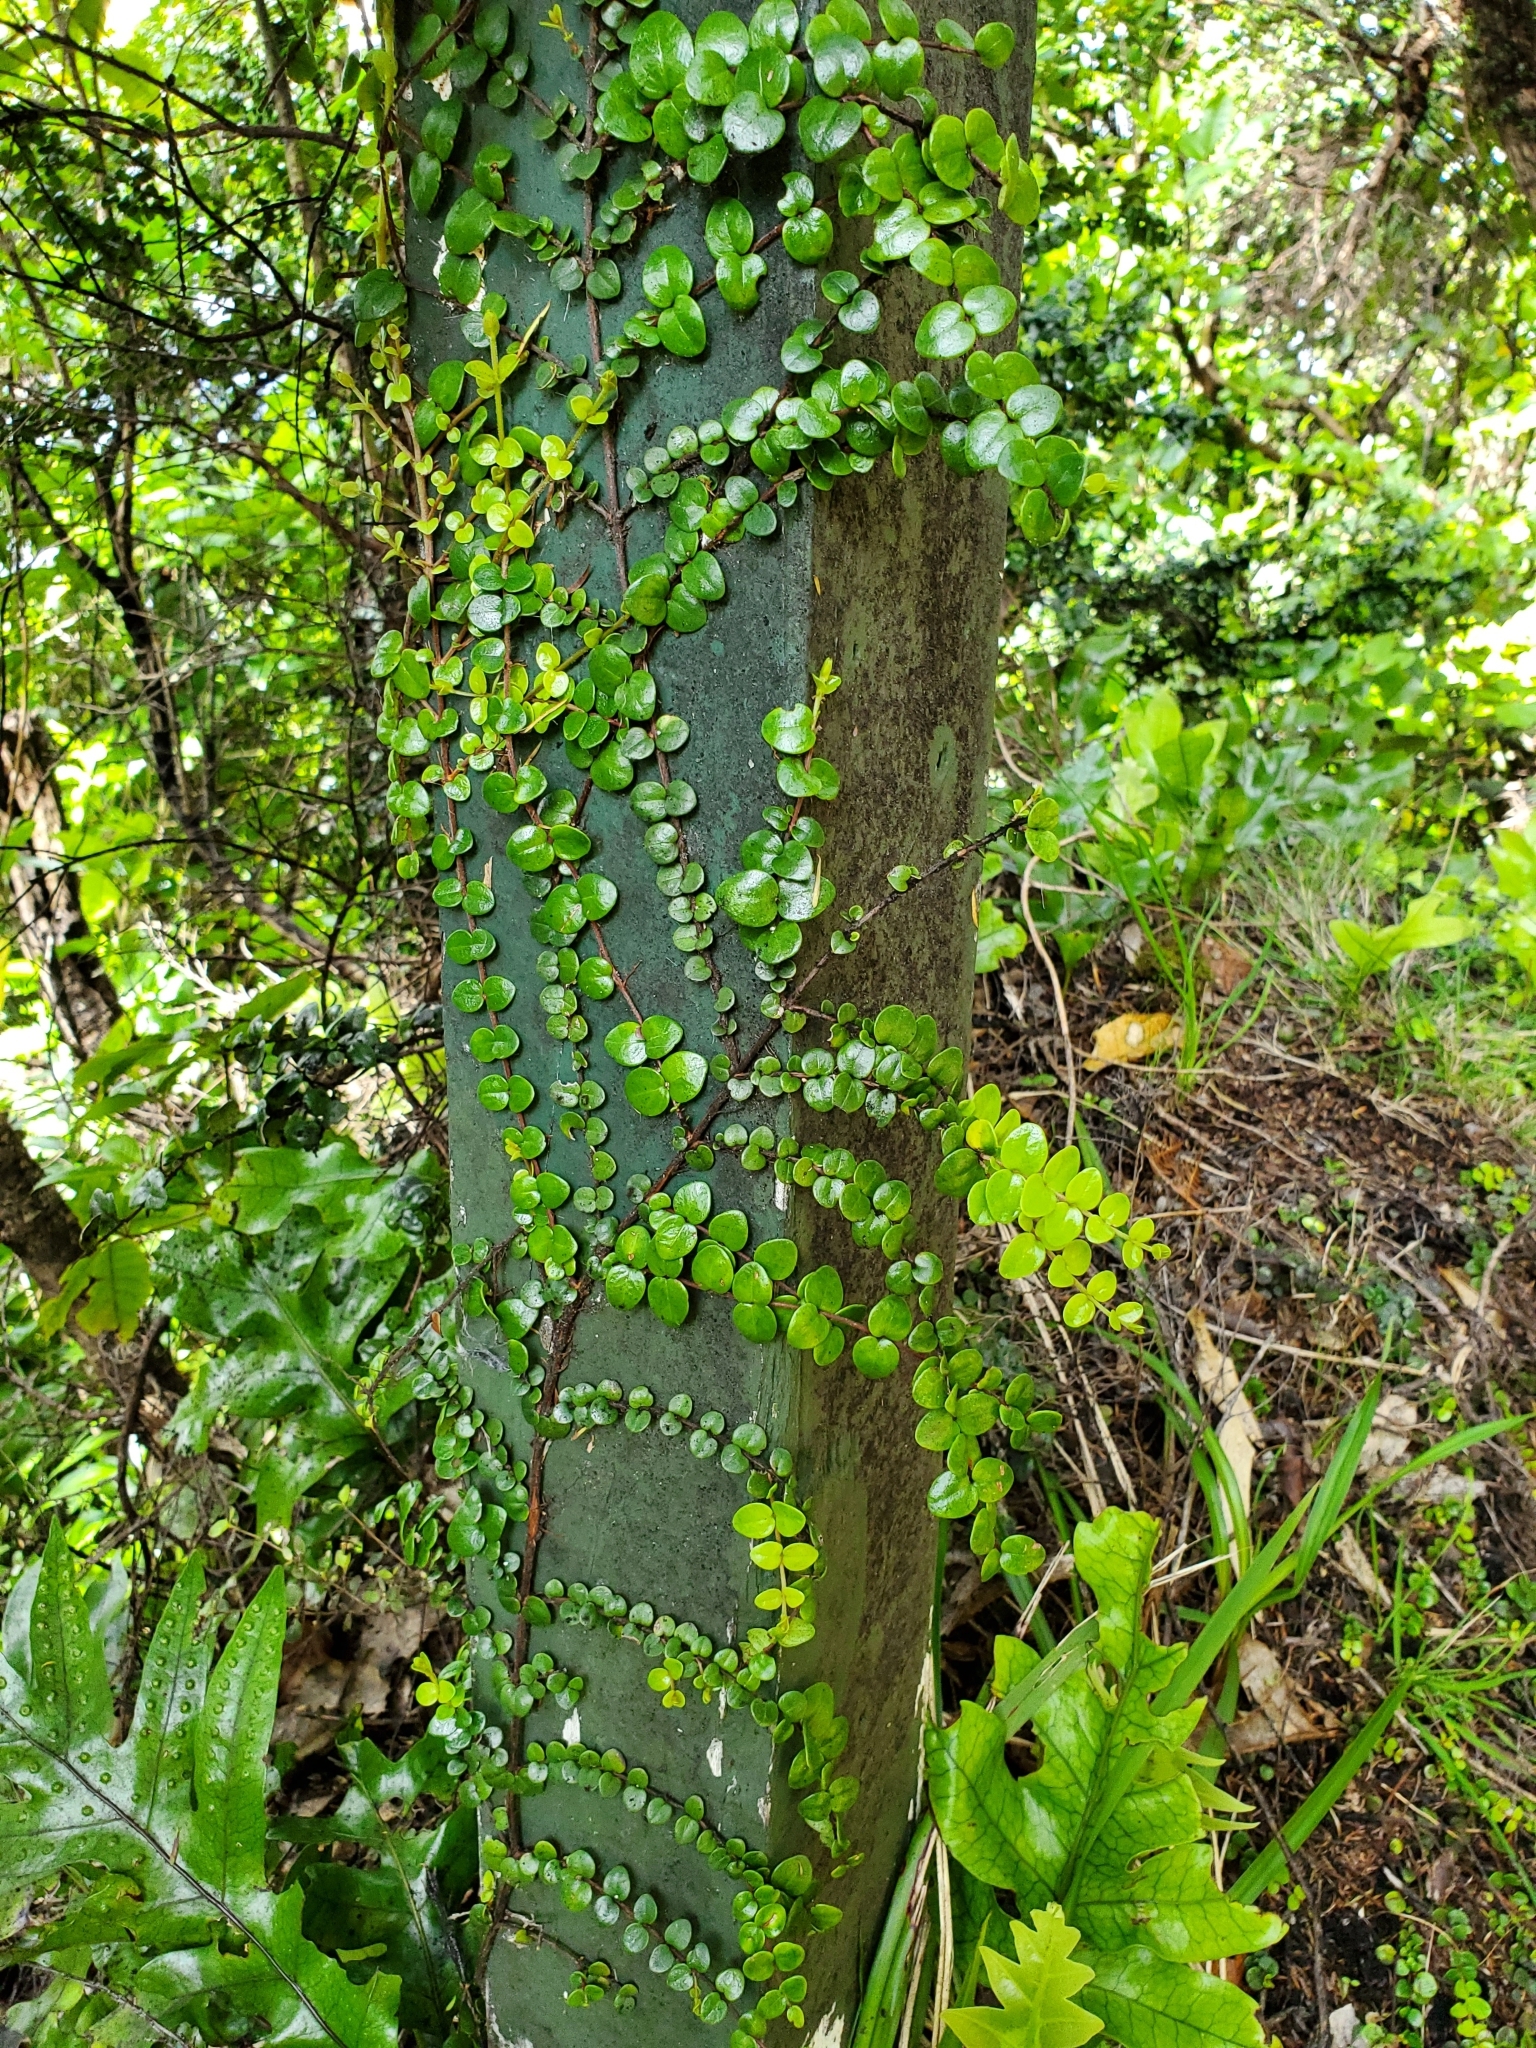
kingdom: Plantae
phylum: Tracheophyta
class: Magnoliopsida
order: Myrtales
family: Myrtaceae
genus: Metrosideros
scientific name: Metrosideros perforata
